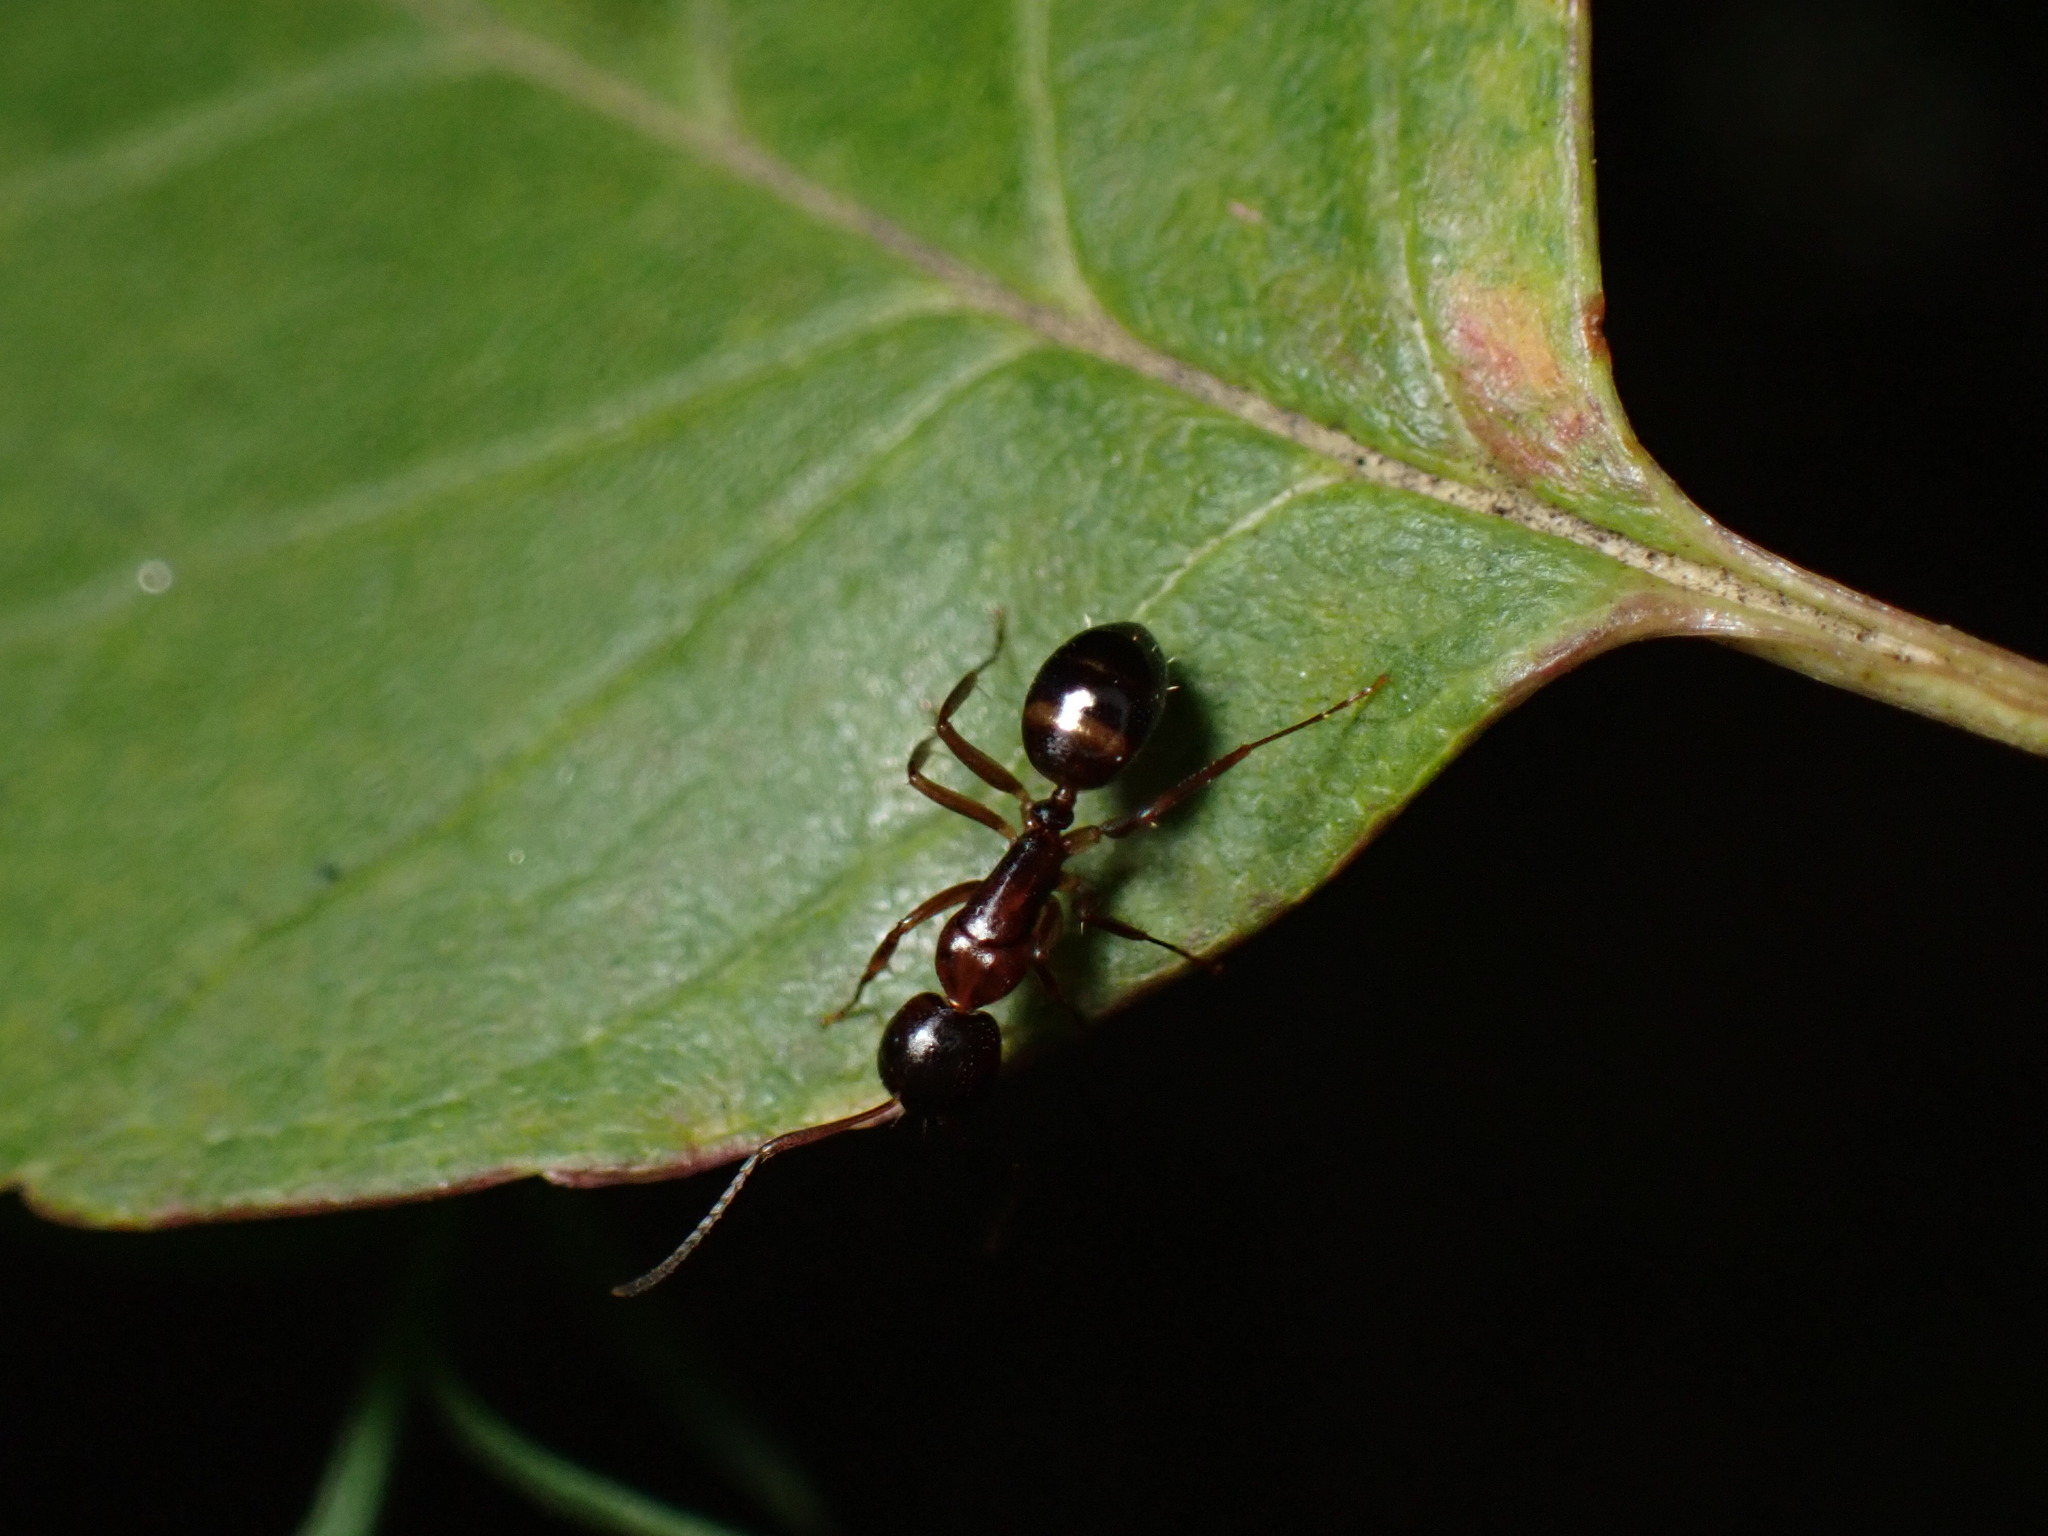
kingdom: Animalia
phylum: Arthropoda
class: Insecta
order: Hymenoptera
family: Formicidae
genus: Camponotus
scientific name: Camponotus subbarbatus
